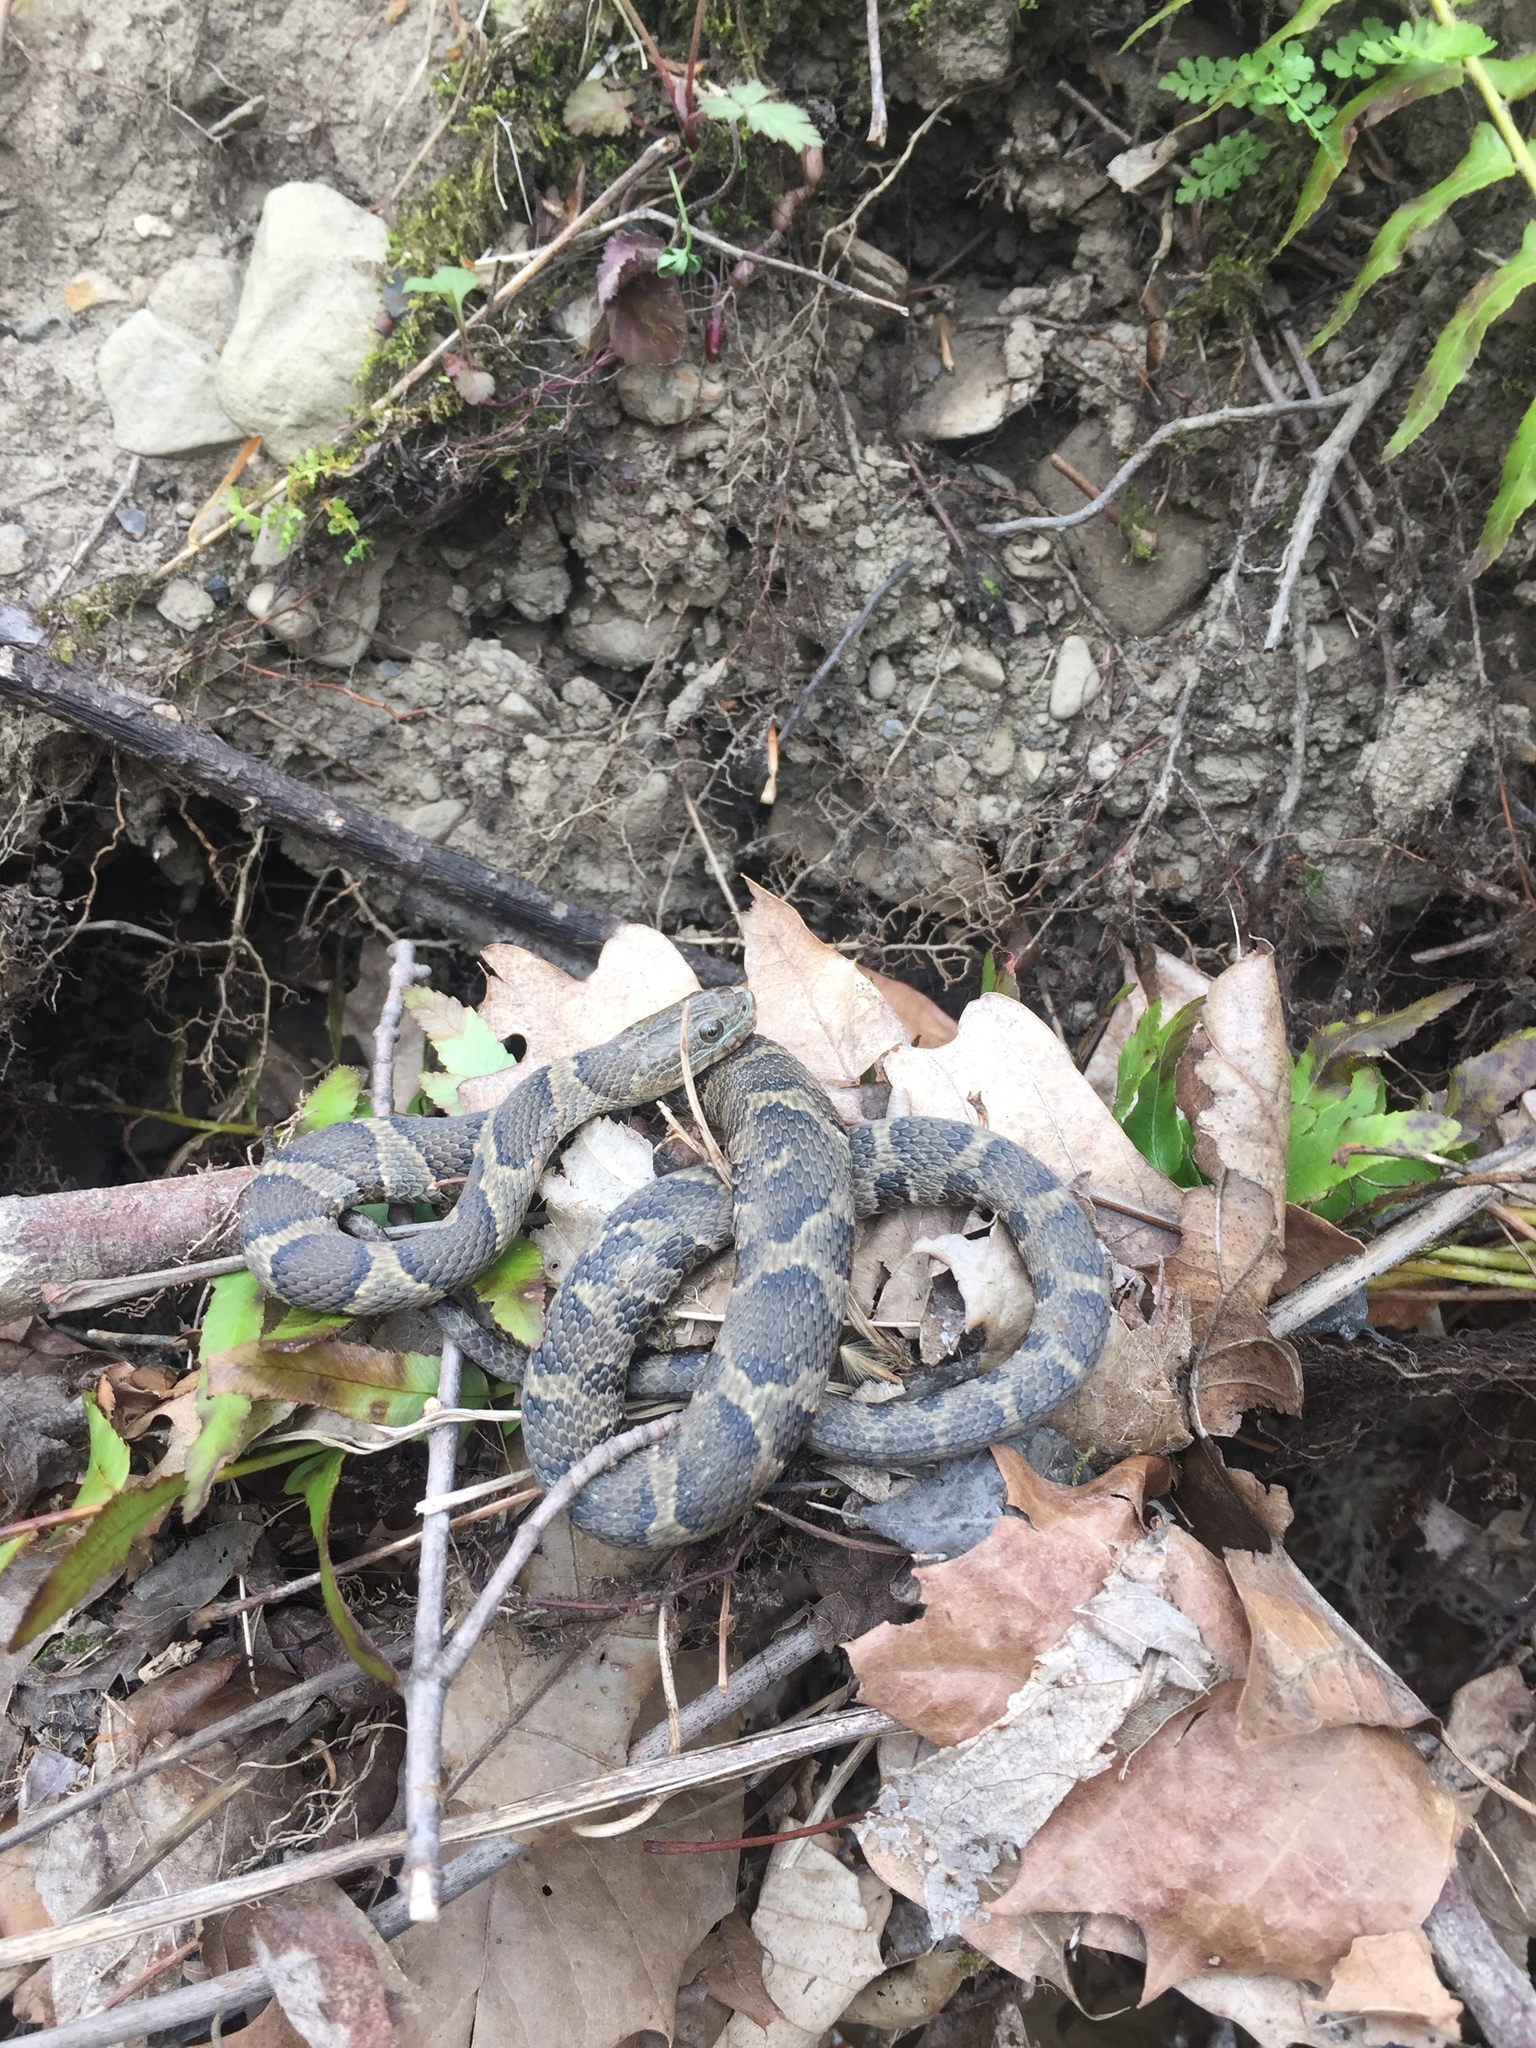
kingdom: Animalia
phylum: Chordata
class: Squamata
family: Colubridae
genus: Nerodia
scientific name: Nerodia sipedon
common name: Northern water snake
